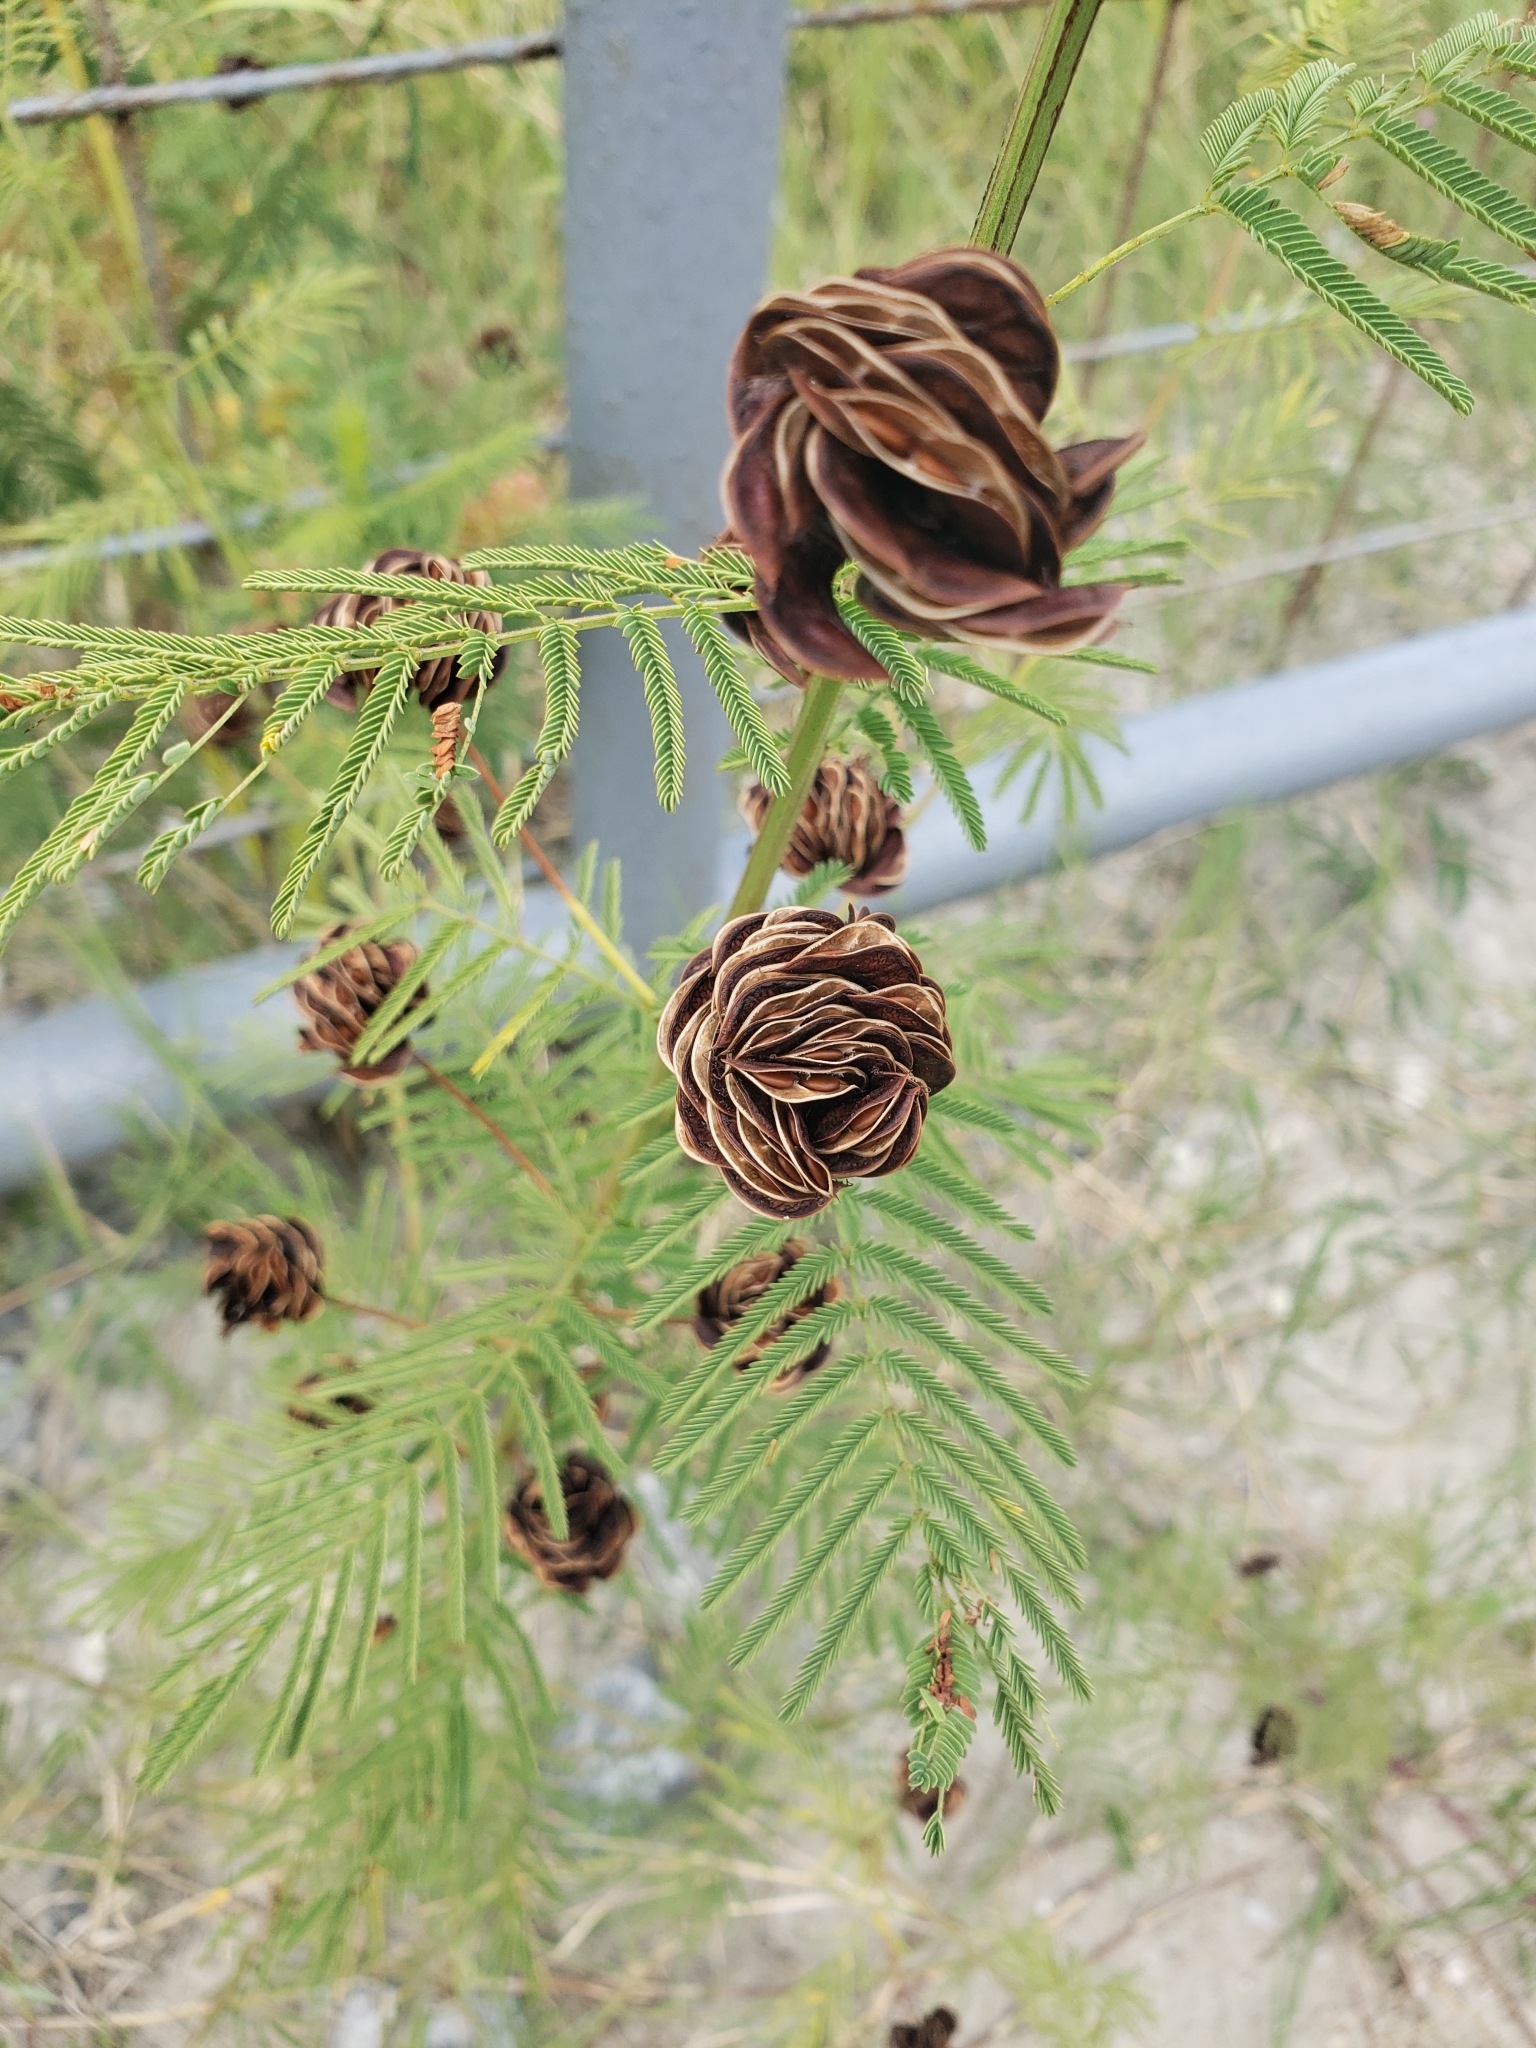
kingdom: Plantae
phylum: Tracheophyta
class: Magnoliopsida
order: Fabales
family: Fabaceae
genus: Desmanthus
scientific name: Desmanthus illinoensis
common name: Illinois bundle-flower
